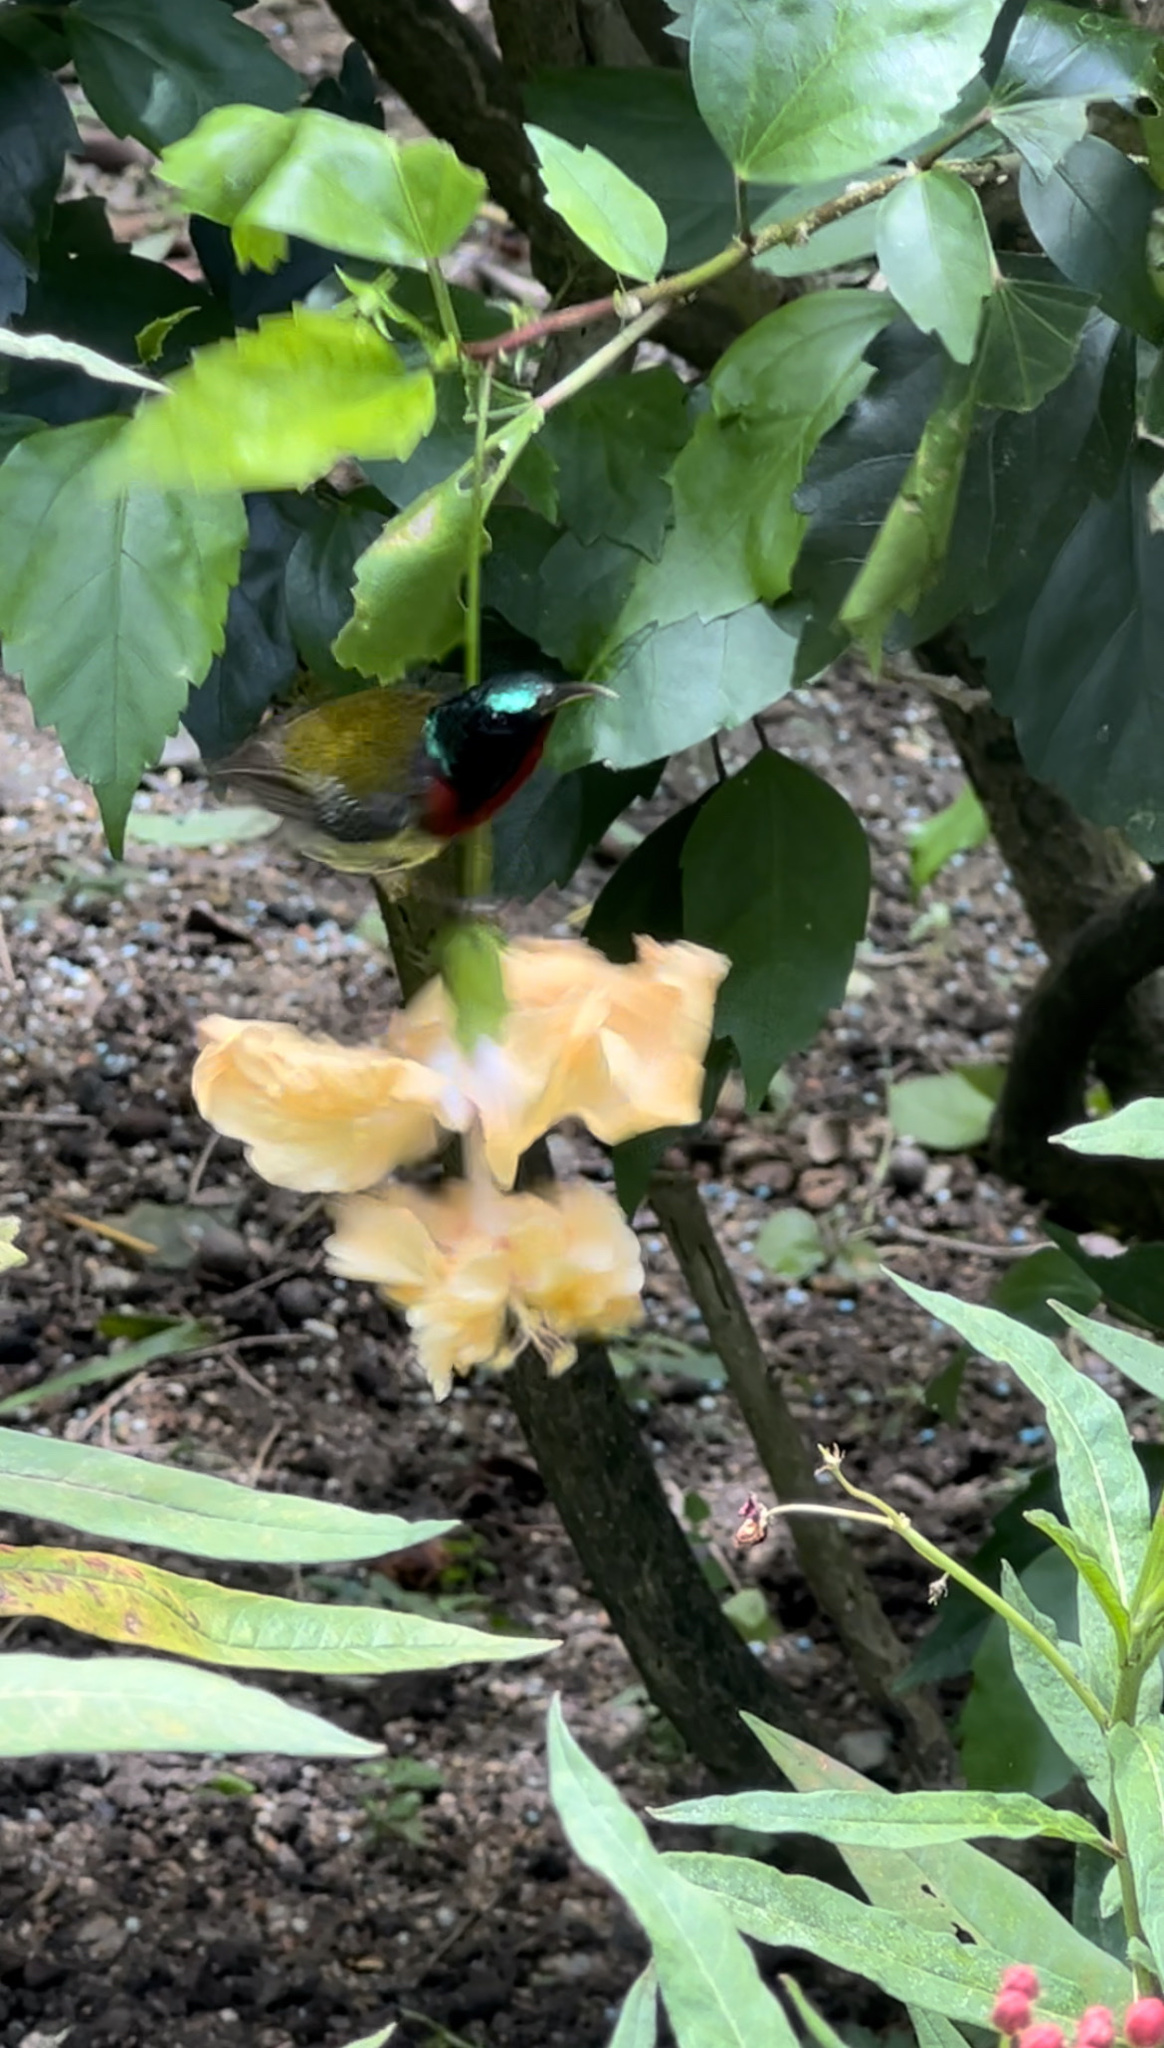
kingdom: Animalia
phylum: Chordata
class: Aves
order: Passeriformes
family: Nectariniidae
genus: Aethopyga
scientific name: Aethopyga christinae
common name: Fork-tailed sunbird
